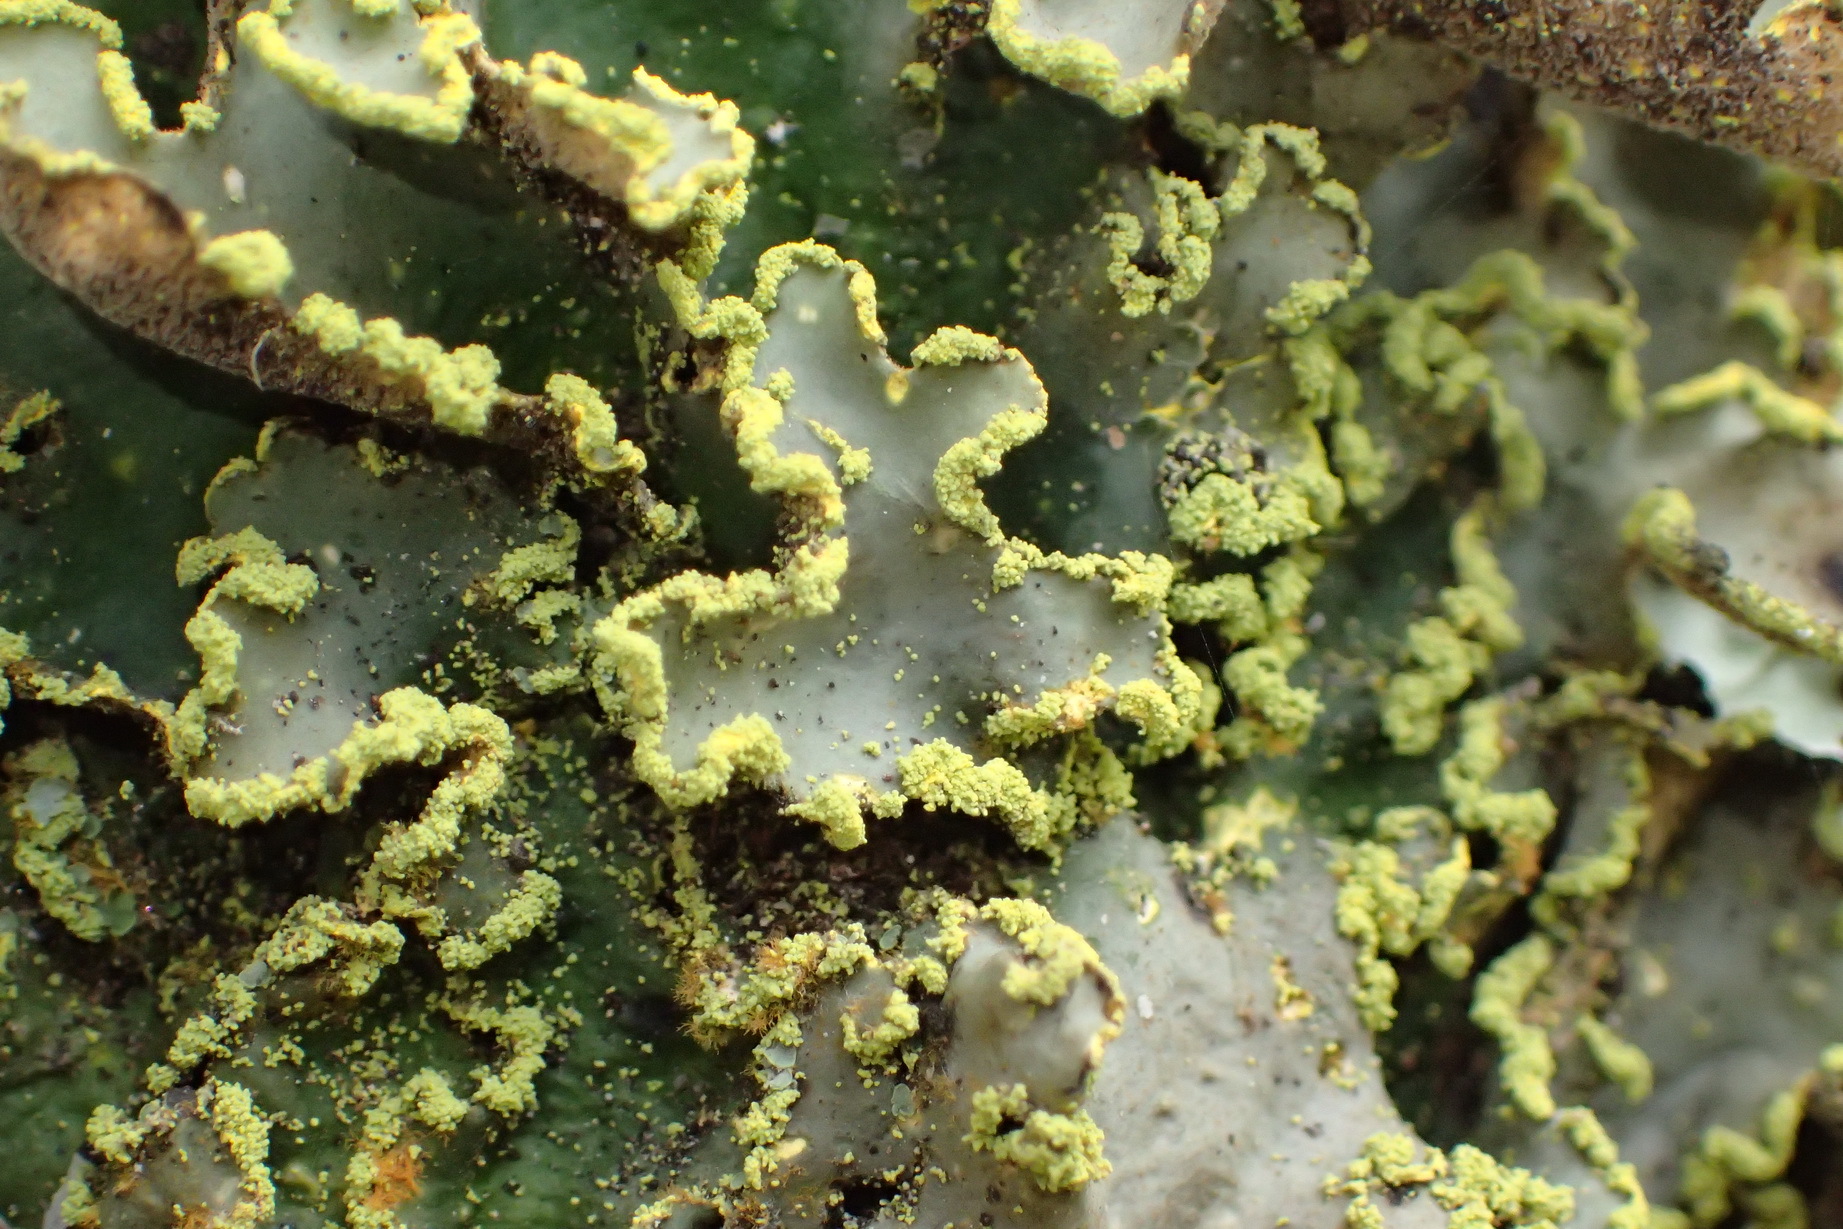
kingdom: Fungi
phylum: Ascomycota
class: Lecanoromycetes
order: Peltigerales
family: Lobariaceae
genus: Pseudocyphellaria
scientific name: Pseudocyphellaria aurata
